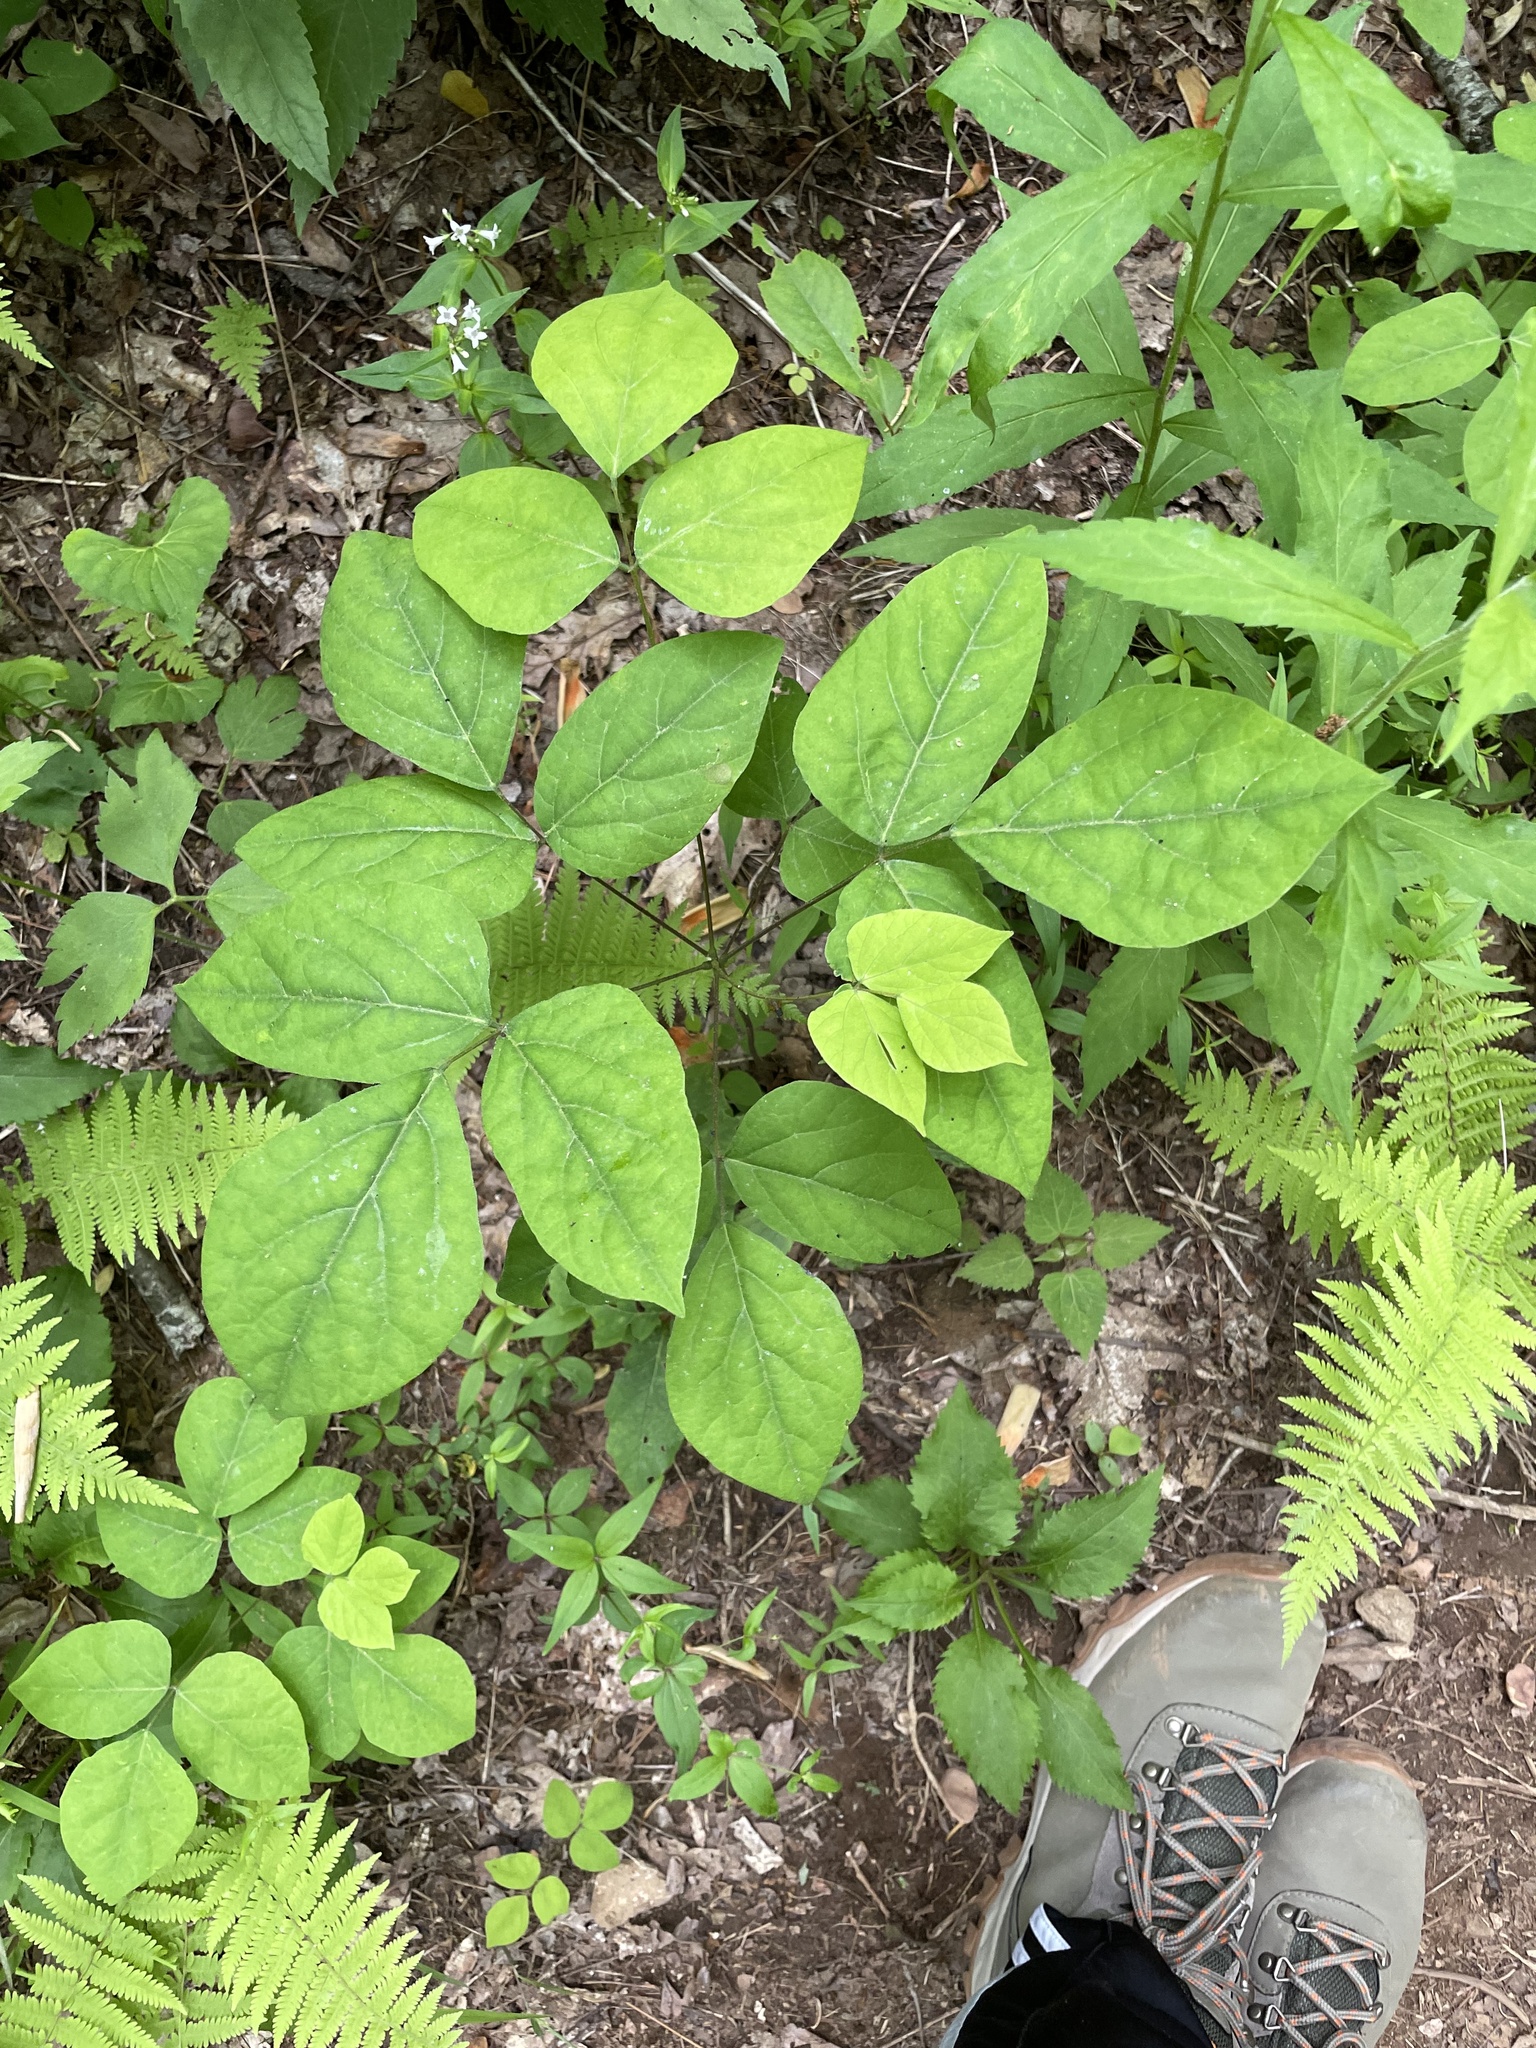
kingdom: Plantae
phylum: Tracheophyta
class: Magnoliopsida
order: Fabales
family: Fabaceae
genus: Hylodesmum
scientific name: Hylodesmum nudiflorum
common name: Bare-stemmed tick-trefoil
